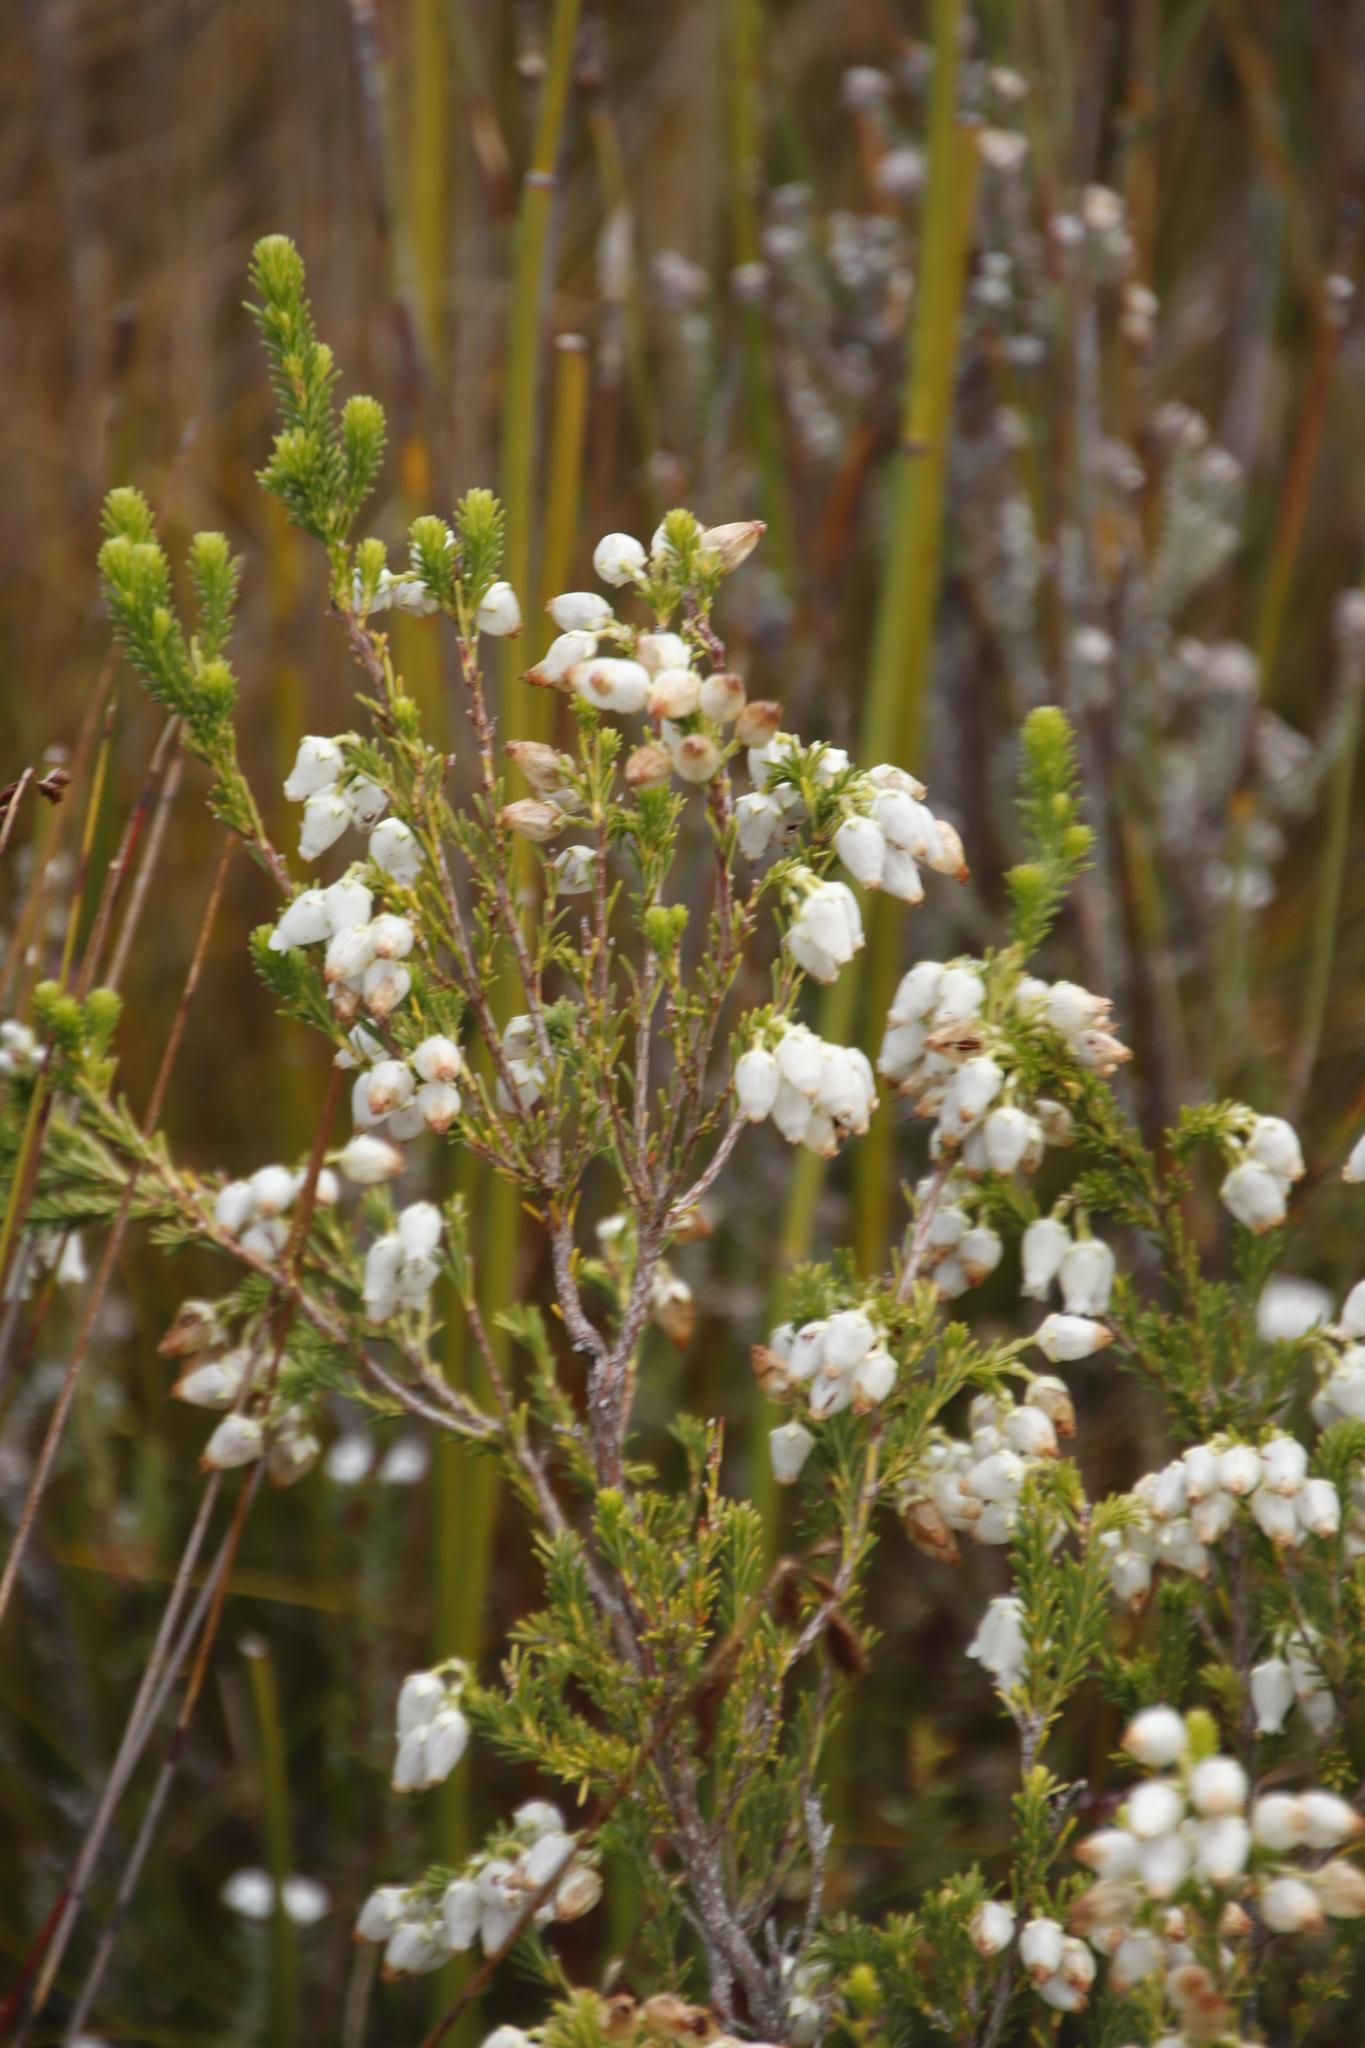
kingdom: Plantae
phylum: Tracheophyta
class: Magnoliopsida
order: Ericales
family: Ericaceae
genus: Erica
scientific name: Erica physodes
